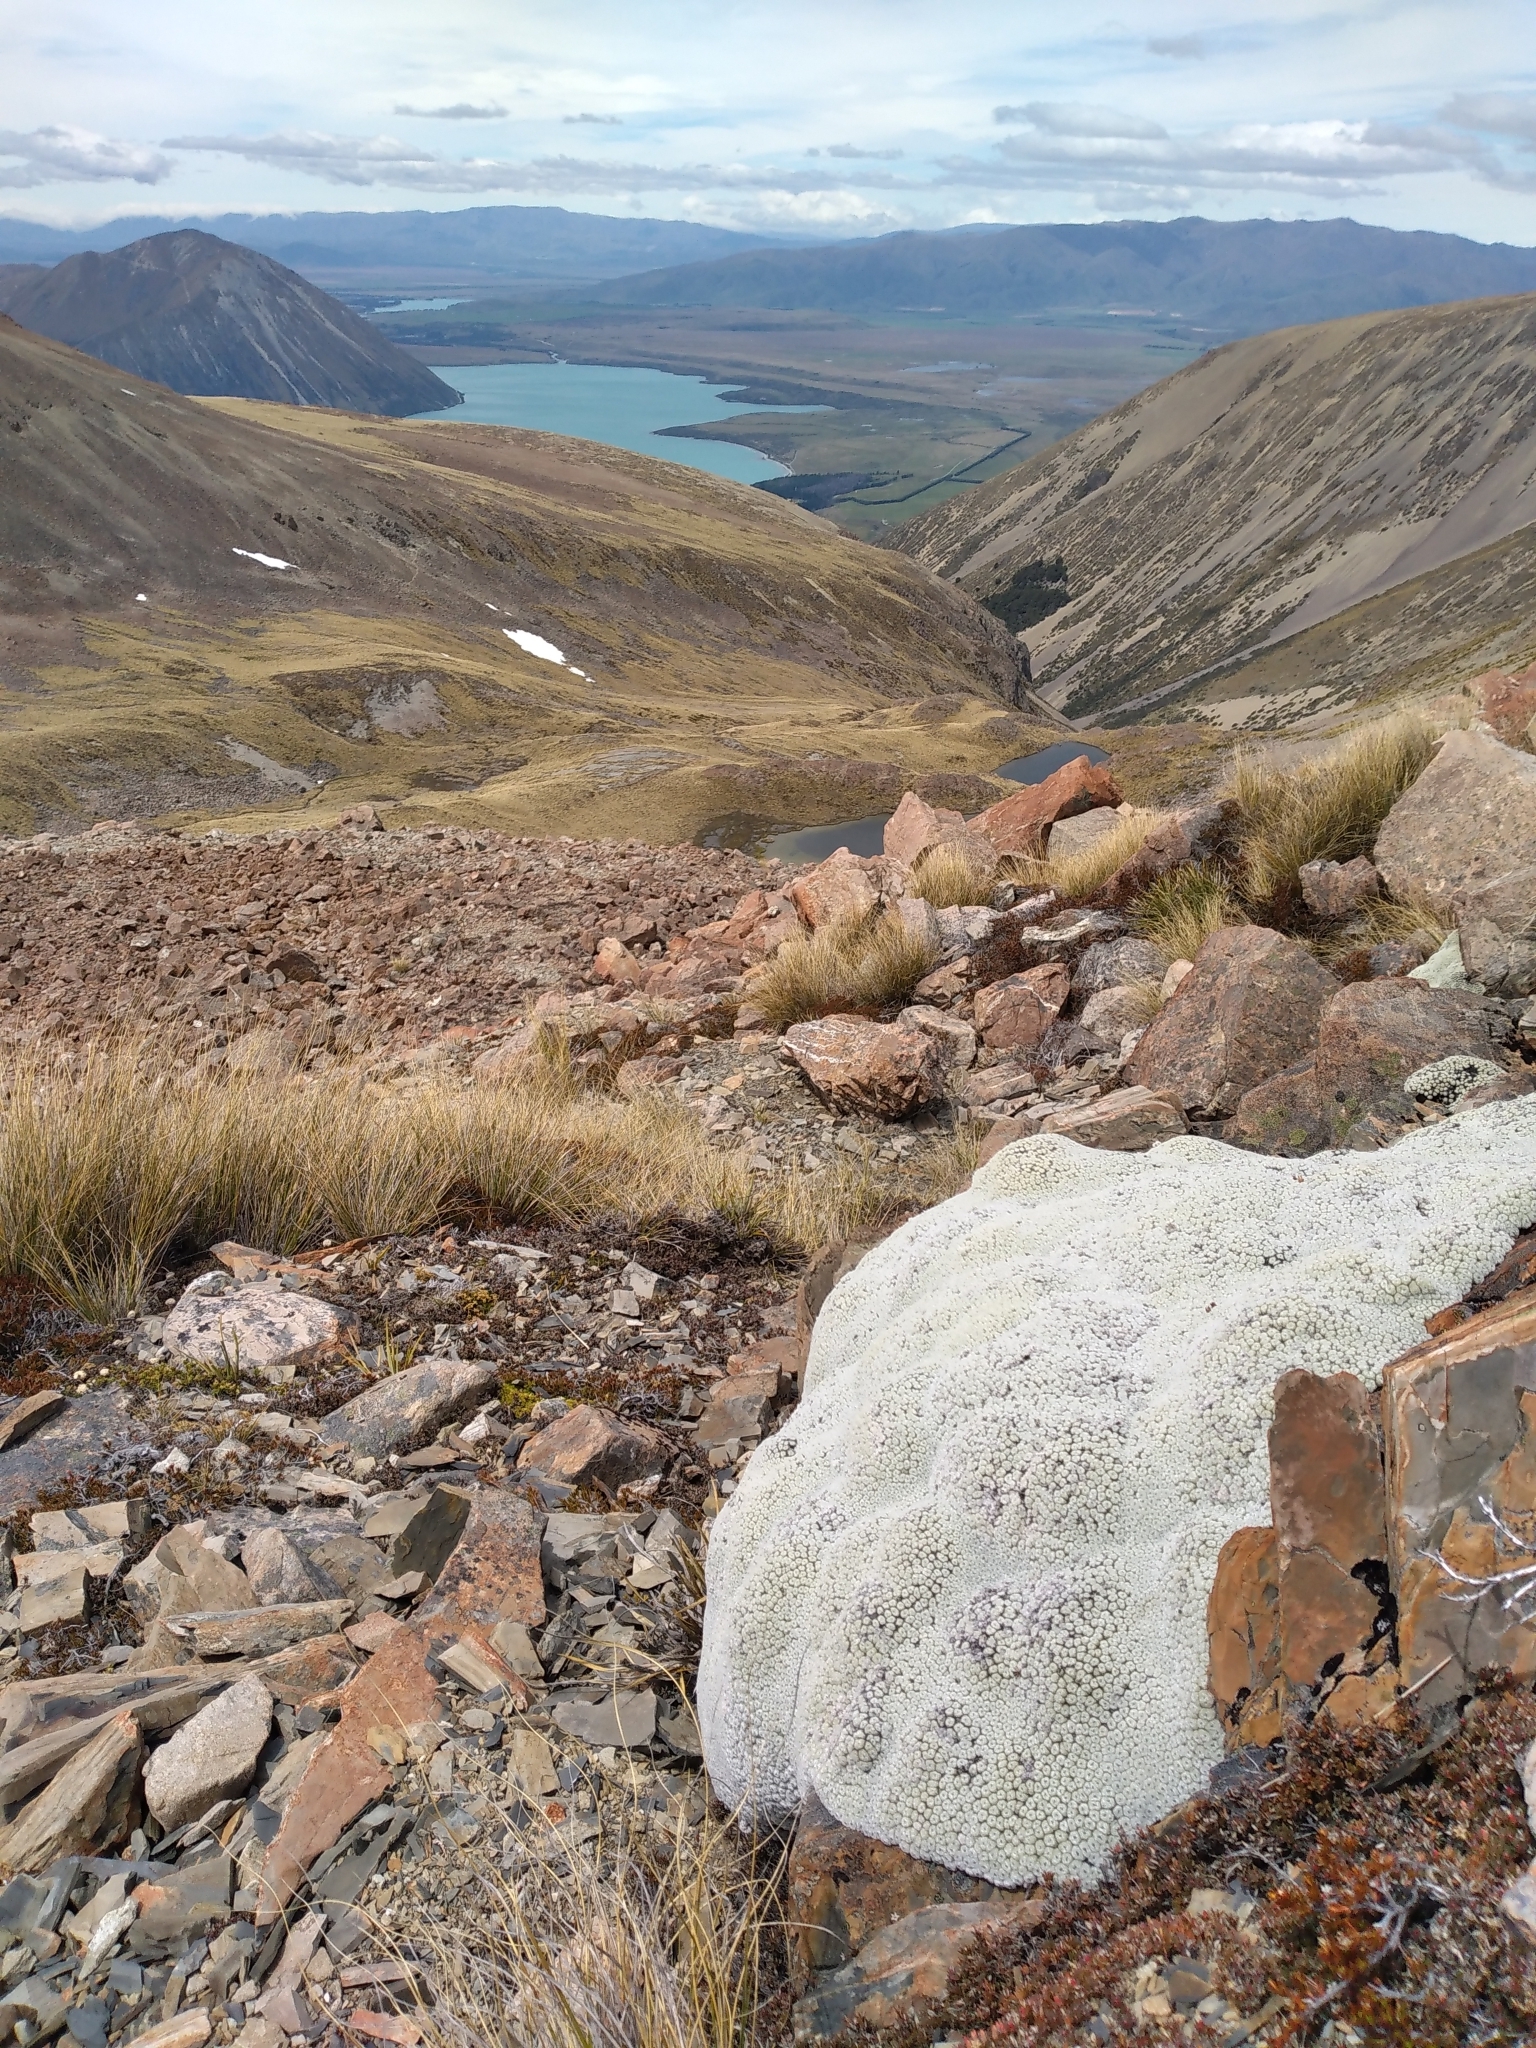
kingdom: Plantae
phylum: Tracheophyta
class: Magnoliopsida
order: Asterales
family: Asteraceae
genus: Raoulia
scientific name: Raoulia eximia
